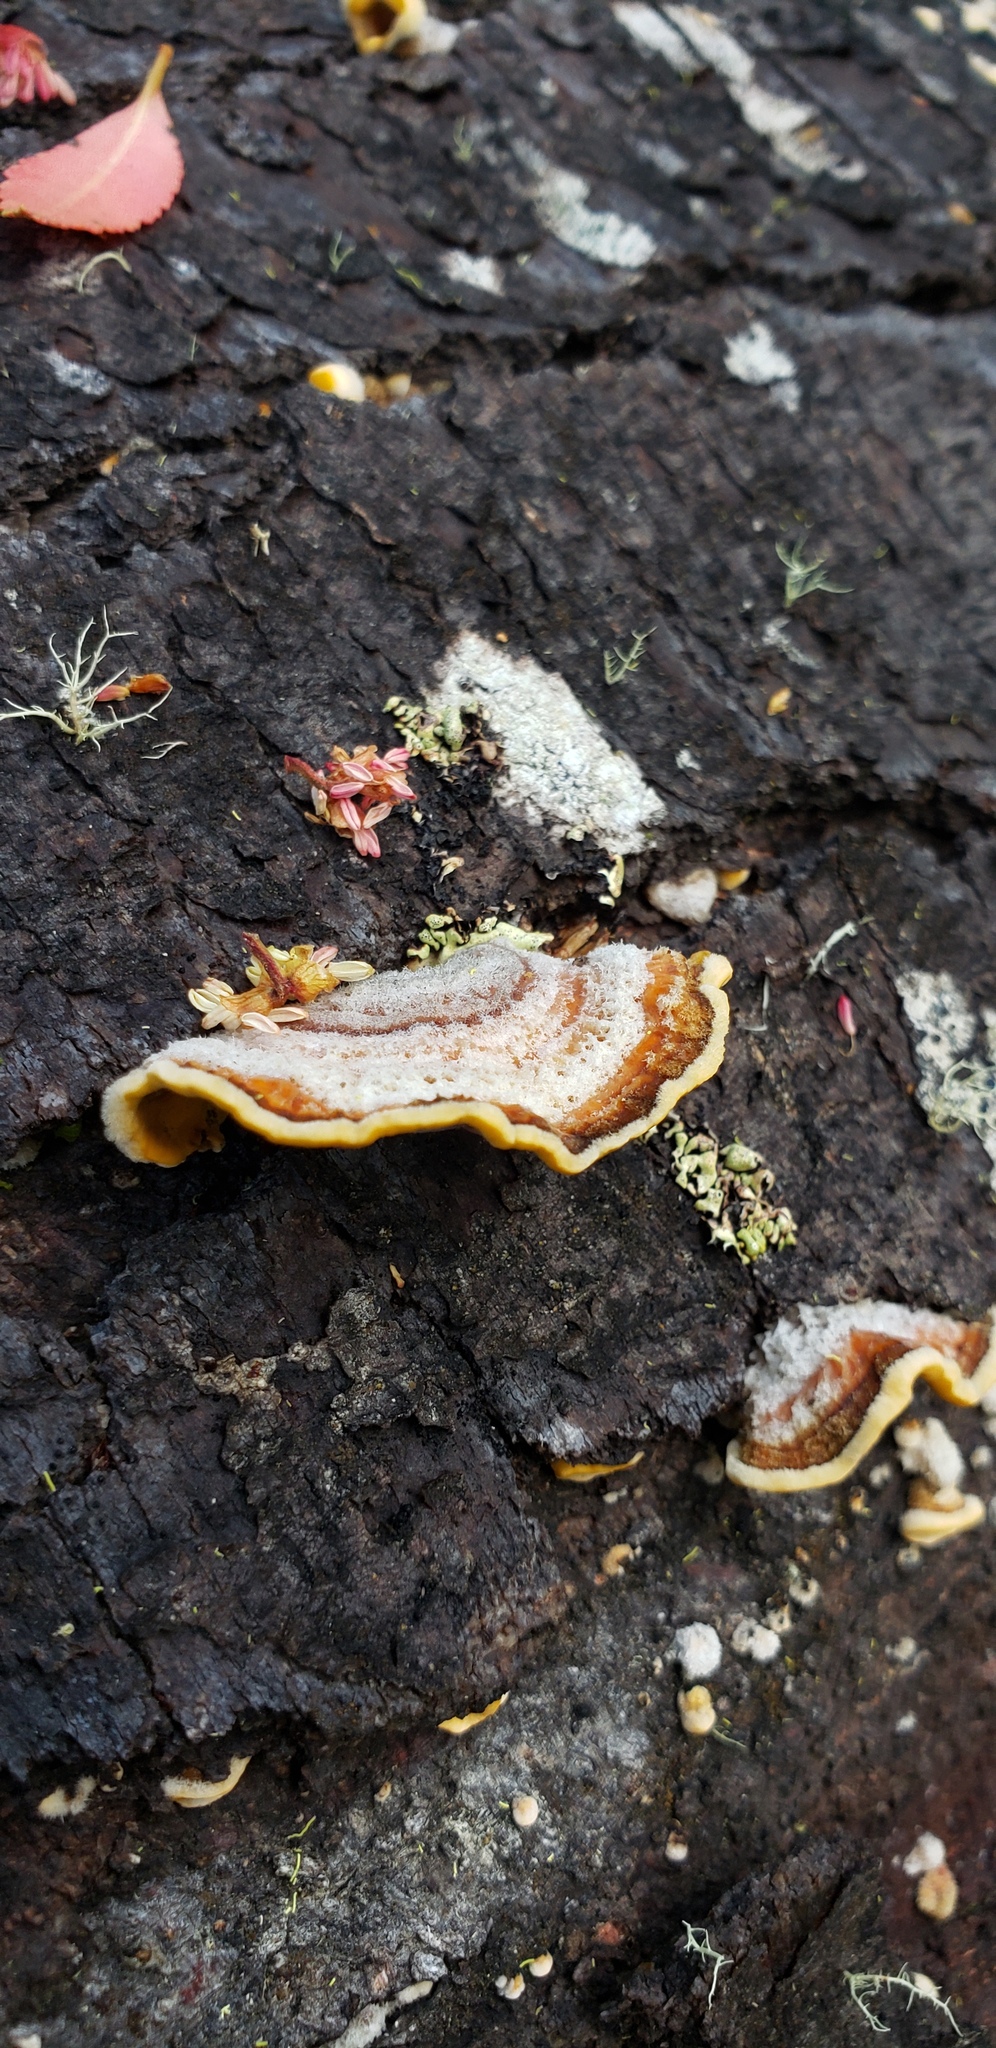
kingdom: Fungi
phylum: Basidiomycota
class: Agaricomycetes
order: Russulales
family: Stereaceae
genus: Stereum
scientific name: Stereum hirsutum
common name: Hairy curtain crust
